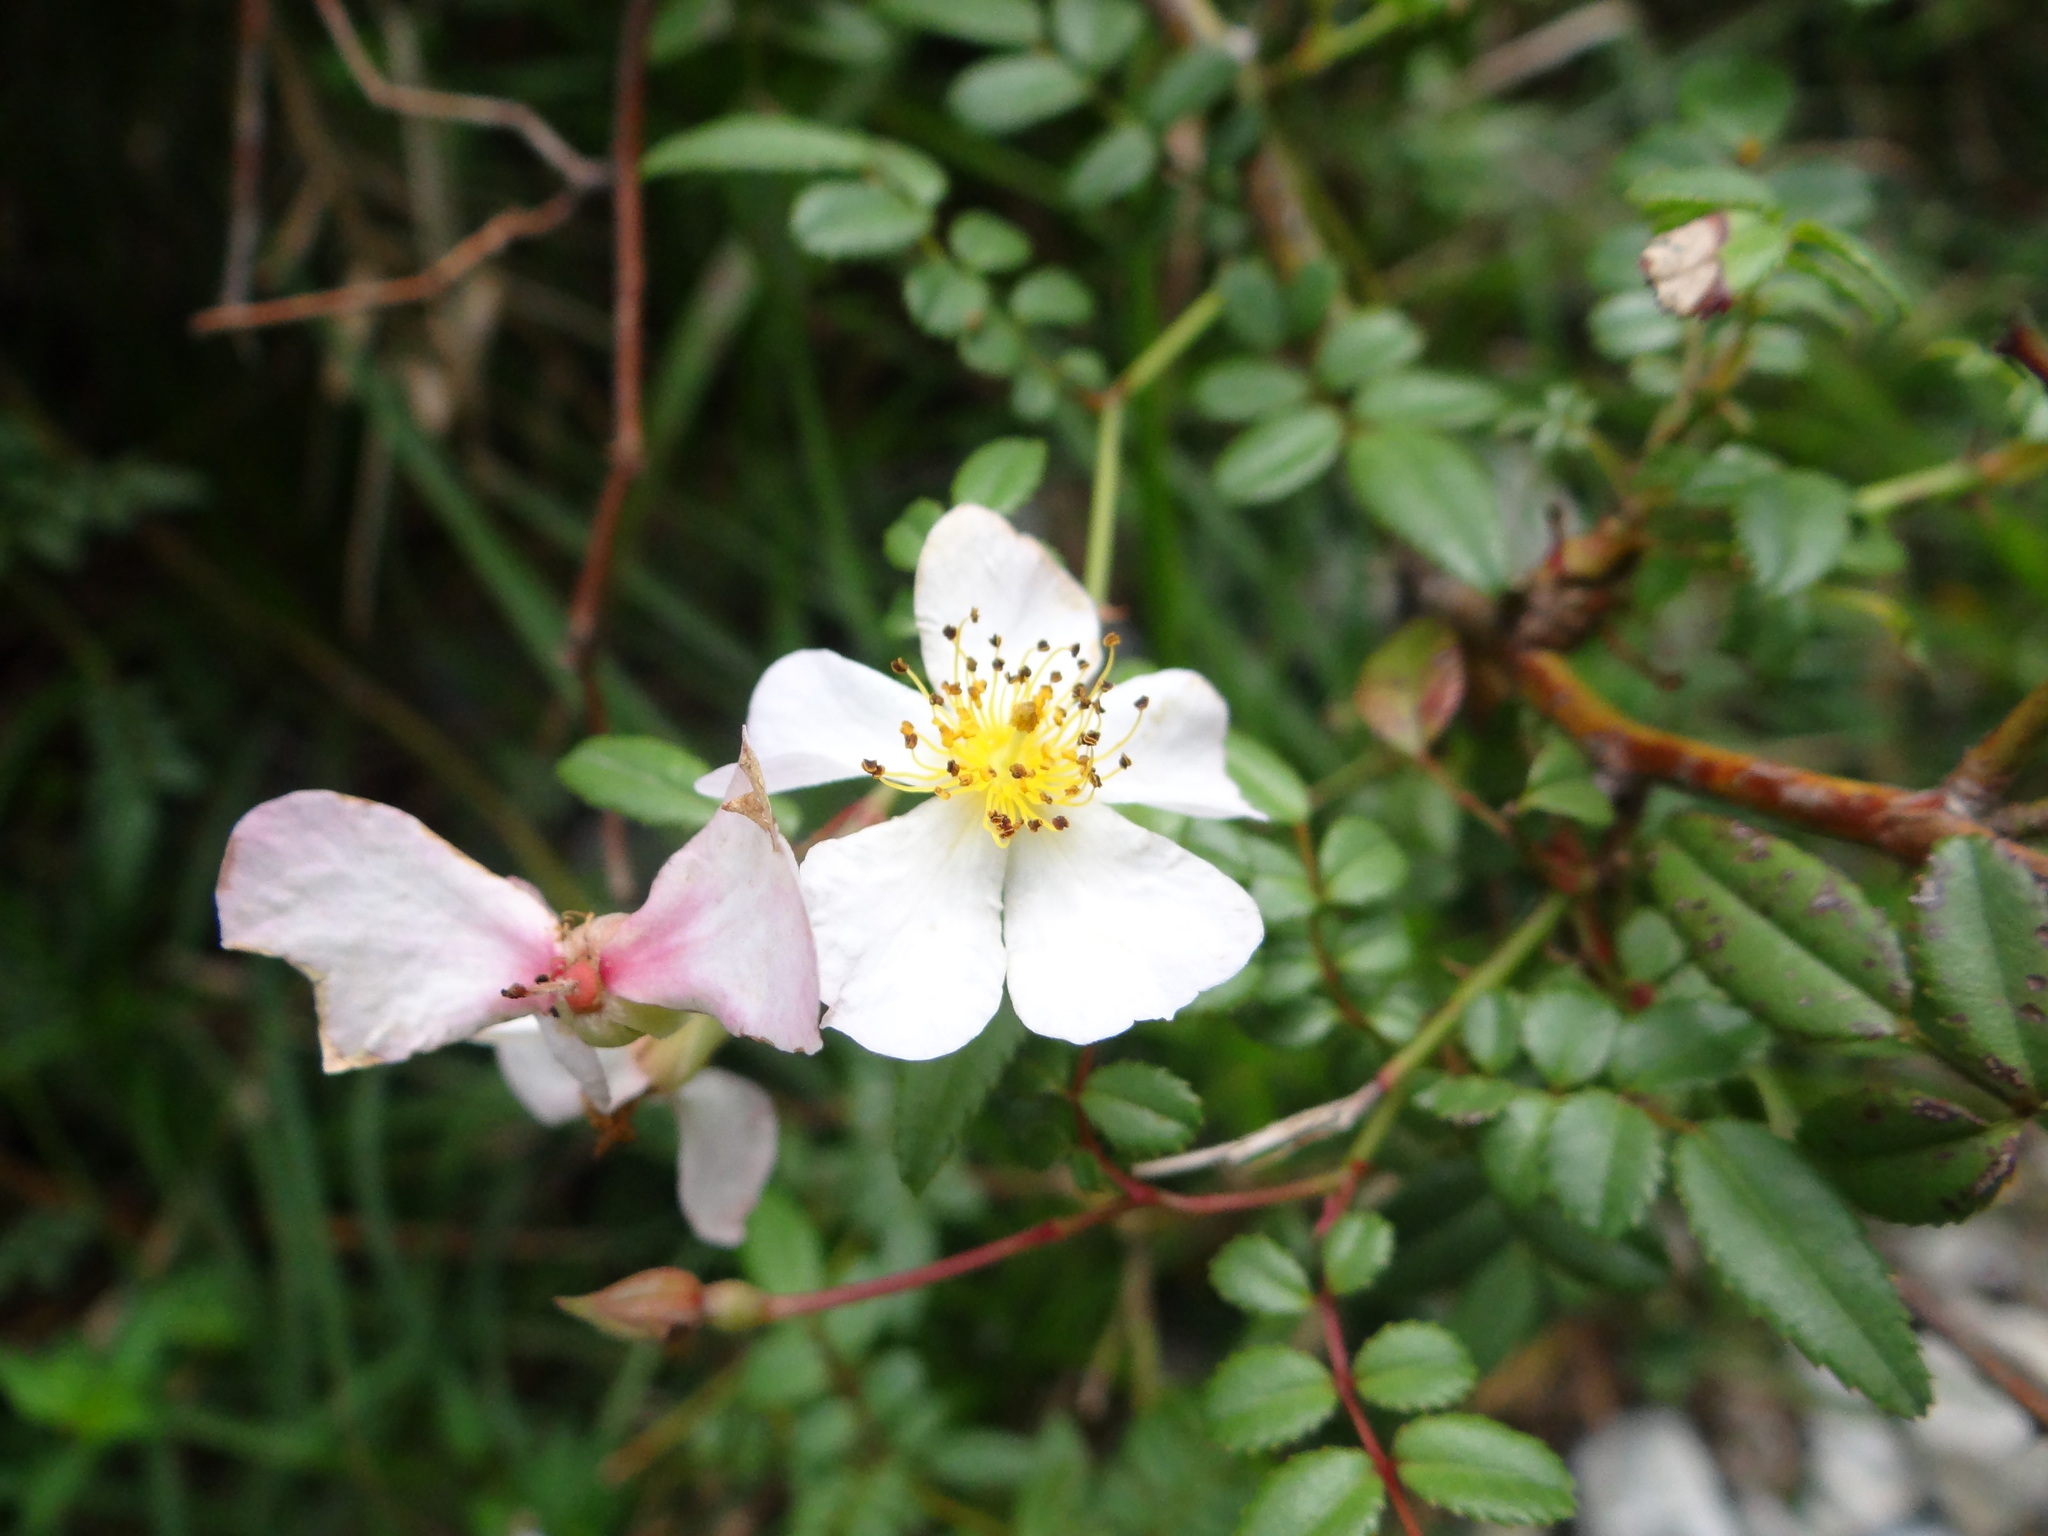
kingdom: Plantae
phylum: Tracheophyta
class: Magnoliopsida
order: Rosales
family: Rosaceae
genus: Rosa
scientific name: Rosa pricei
